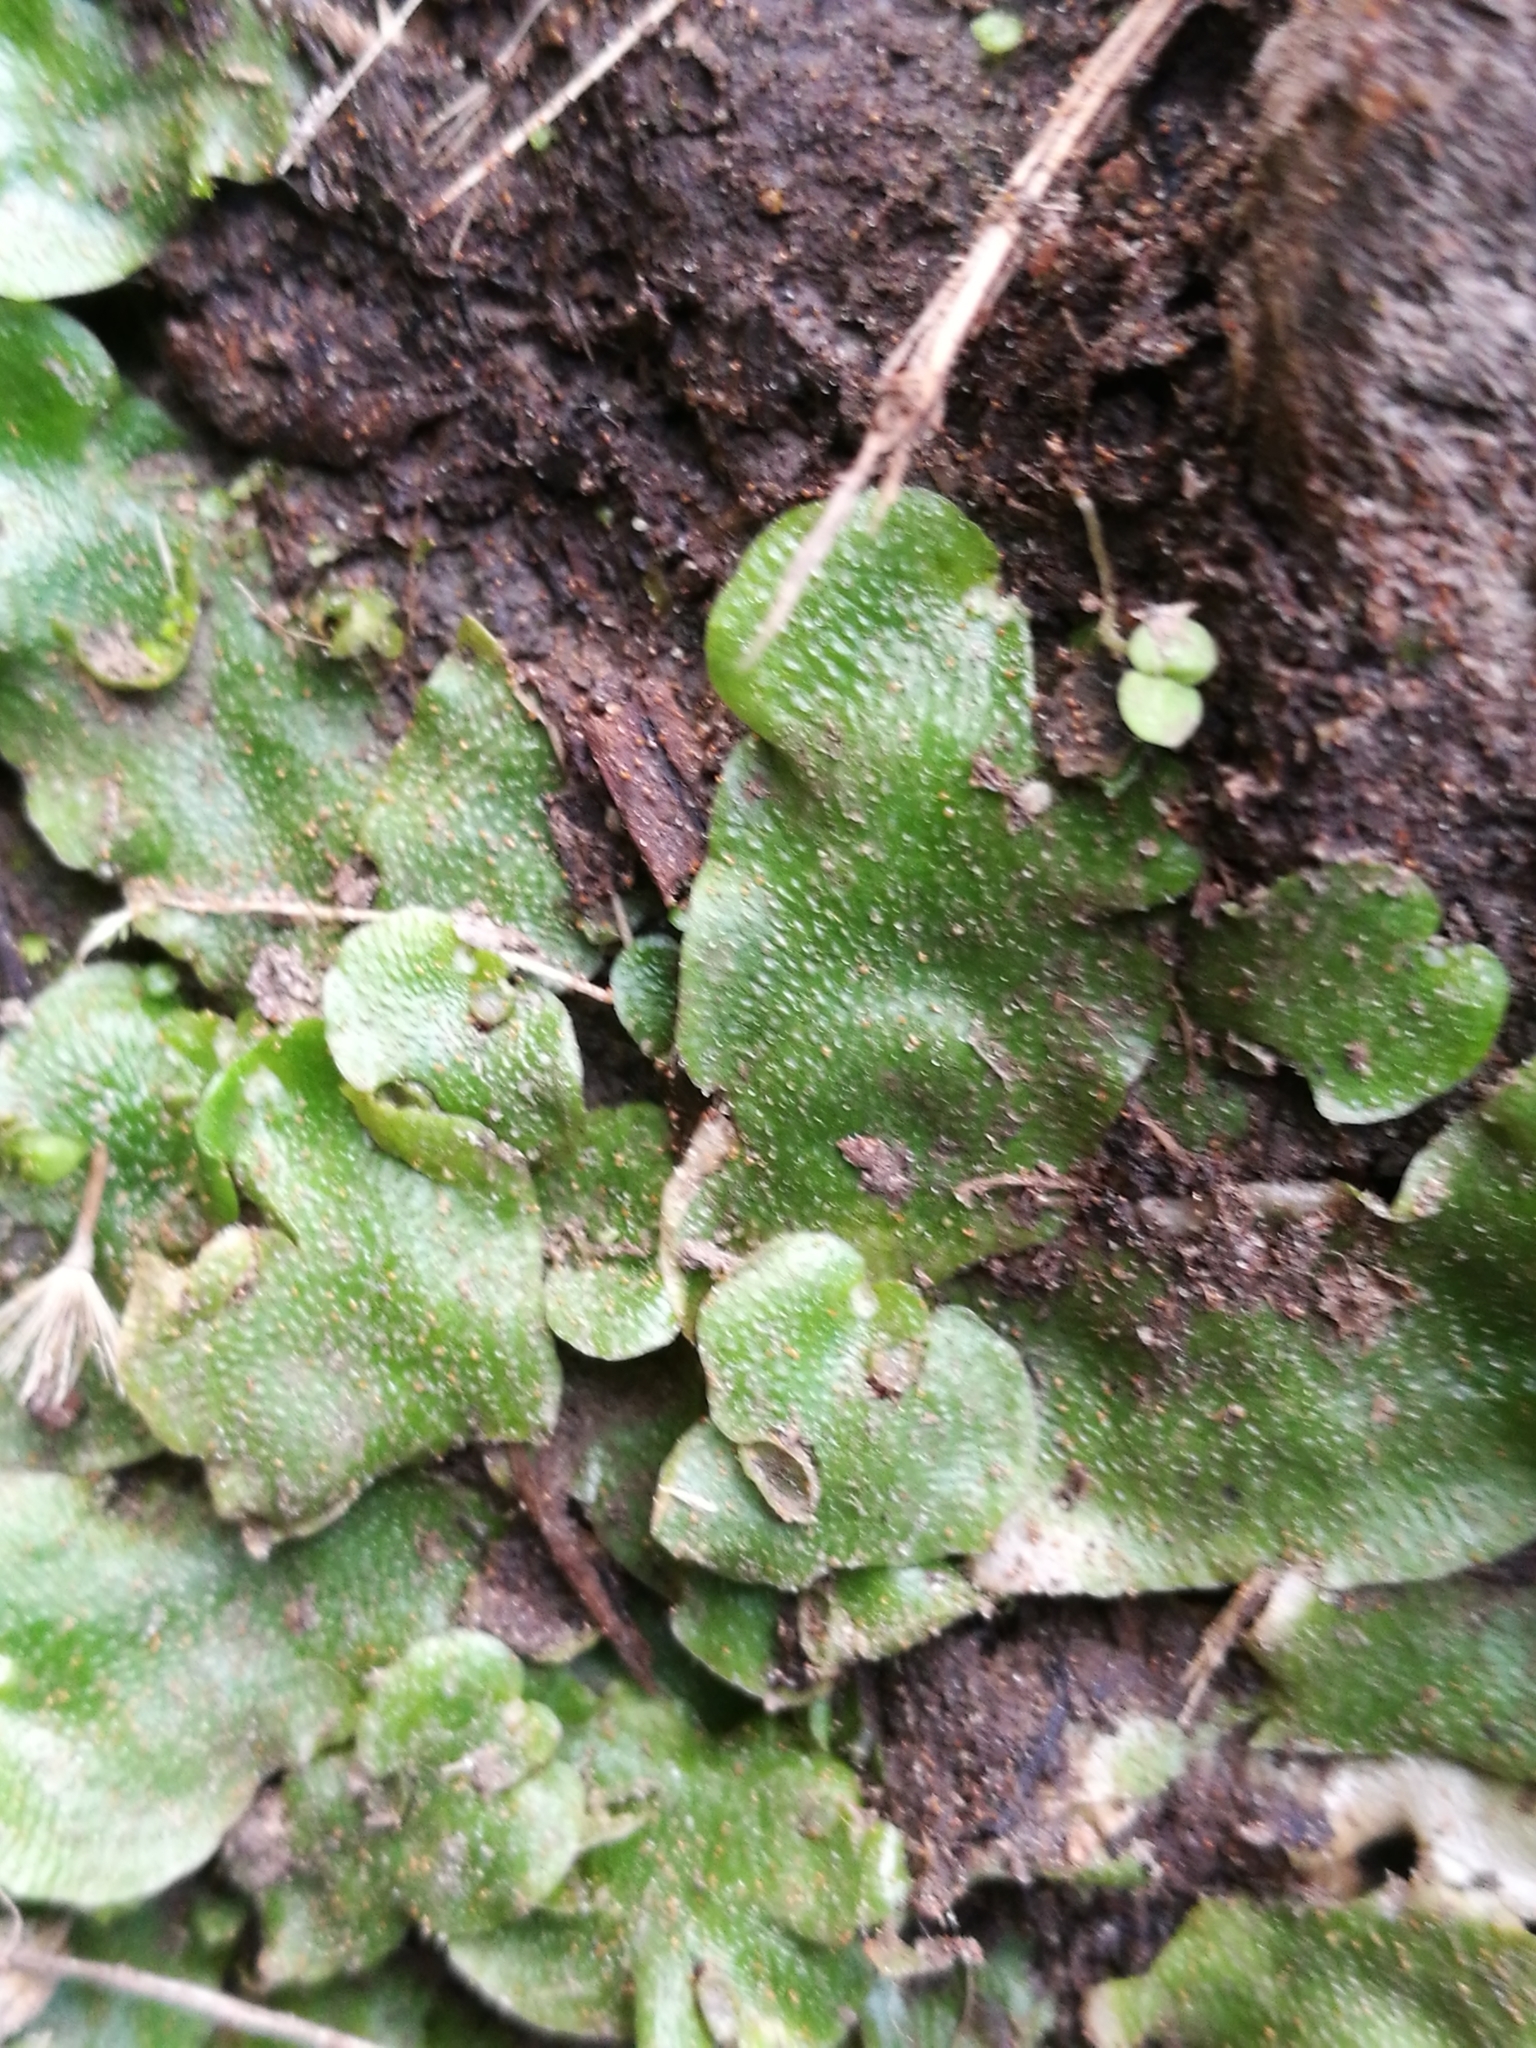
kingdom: Plantae
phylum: Marchantiophyta
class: Marchantiopsida
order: Lunulariales
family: Lunulariaceae
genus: Lunularia
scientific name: Lunularia cruciata
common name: Crescent-cup liverwort
